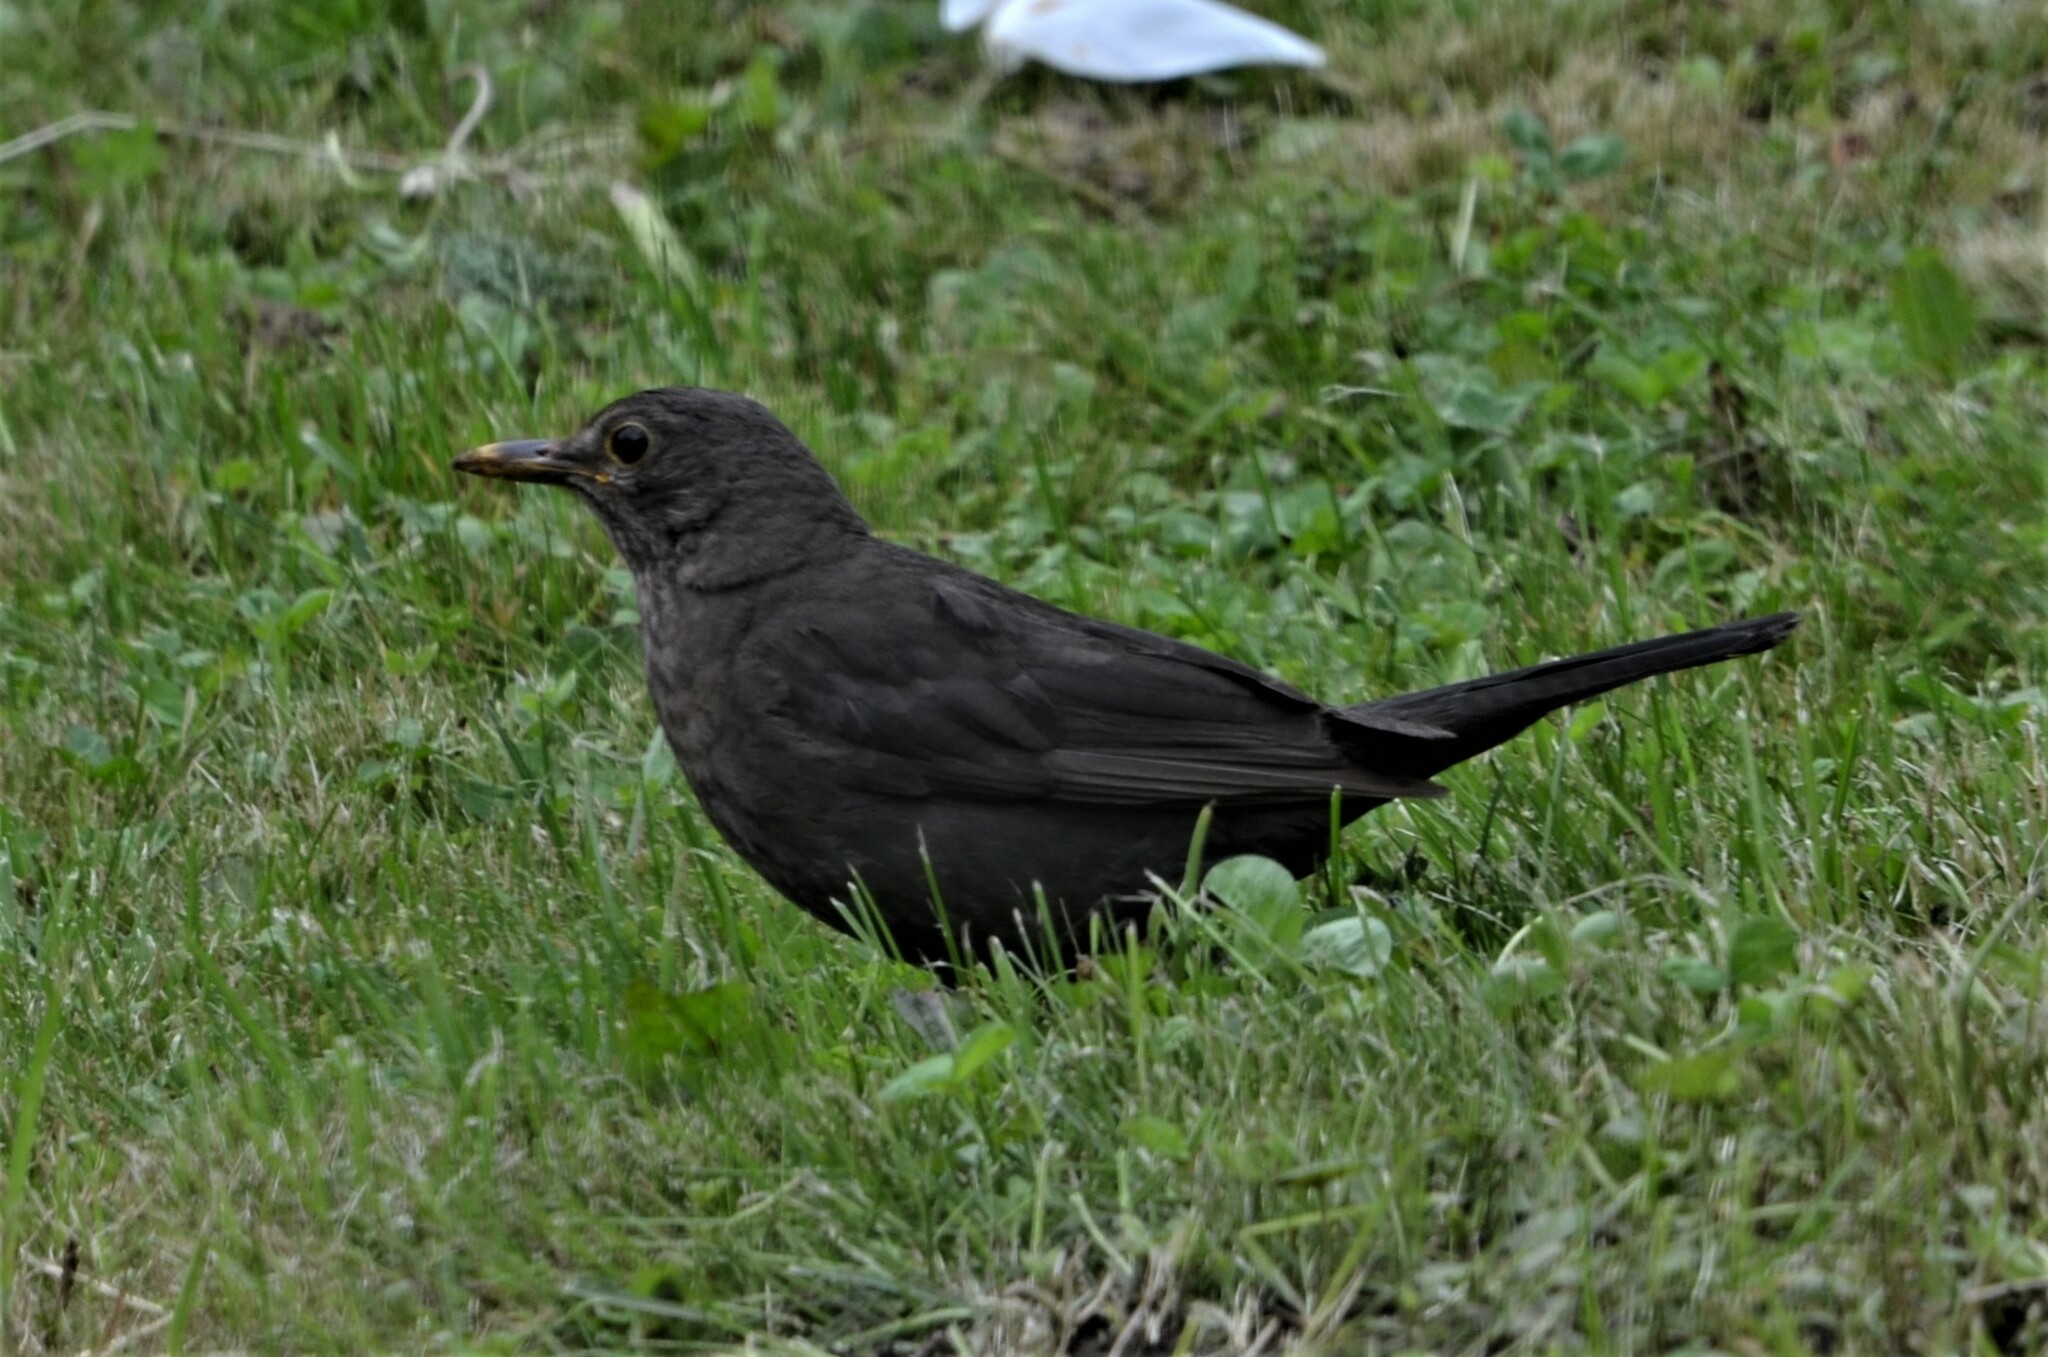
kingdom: Animalia
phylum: Chordata
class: Aves
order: Passeriformes
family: Turdidae
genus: Turdus
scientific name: Turdus merula
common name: Common blackbird
